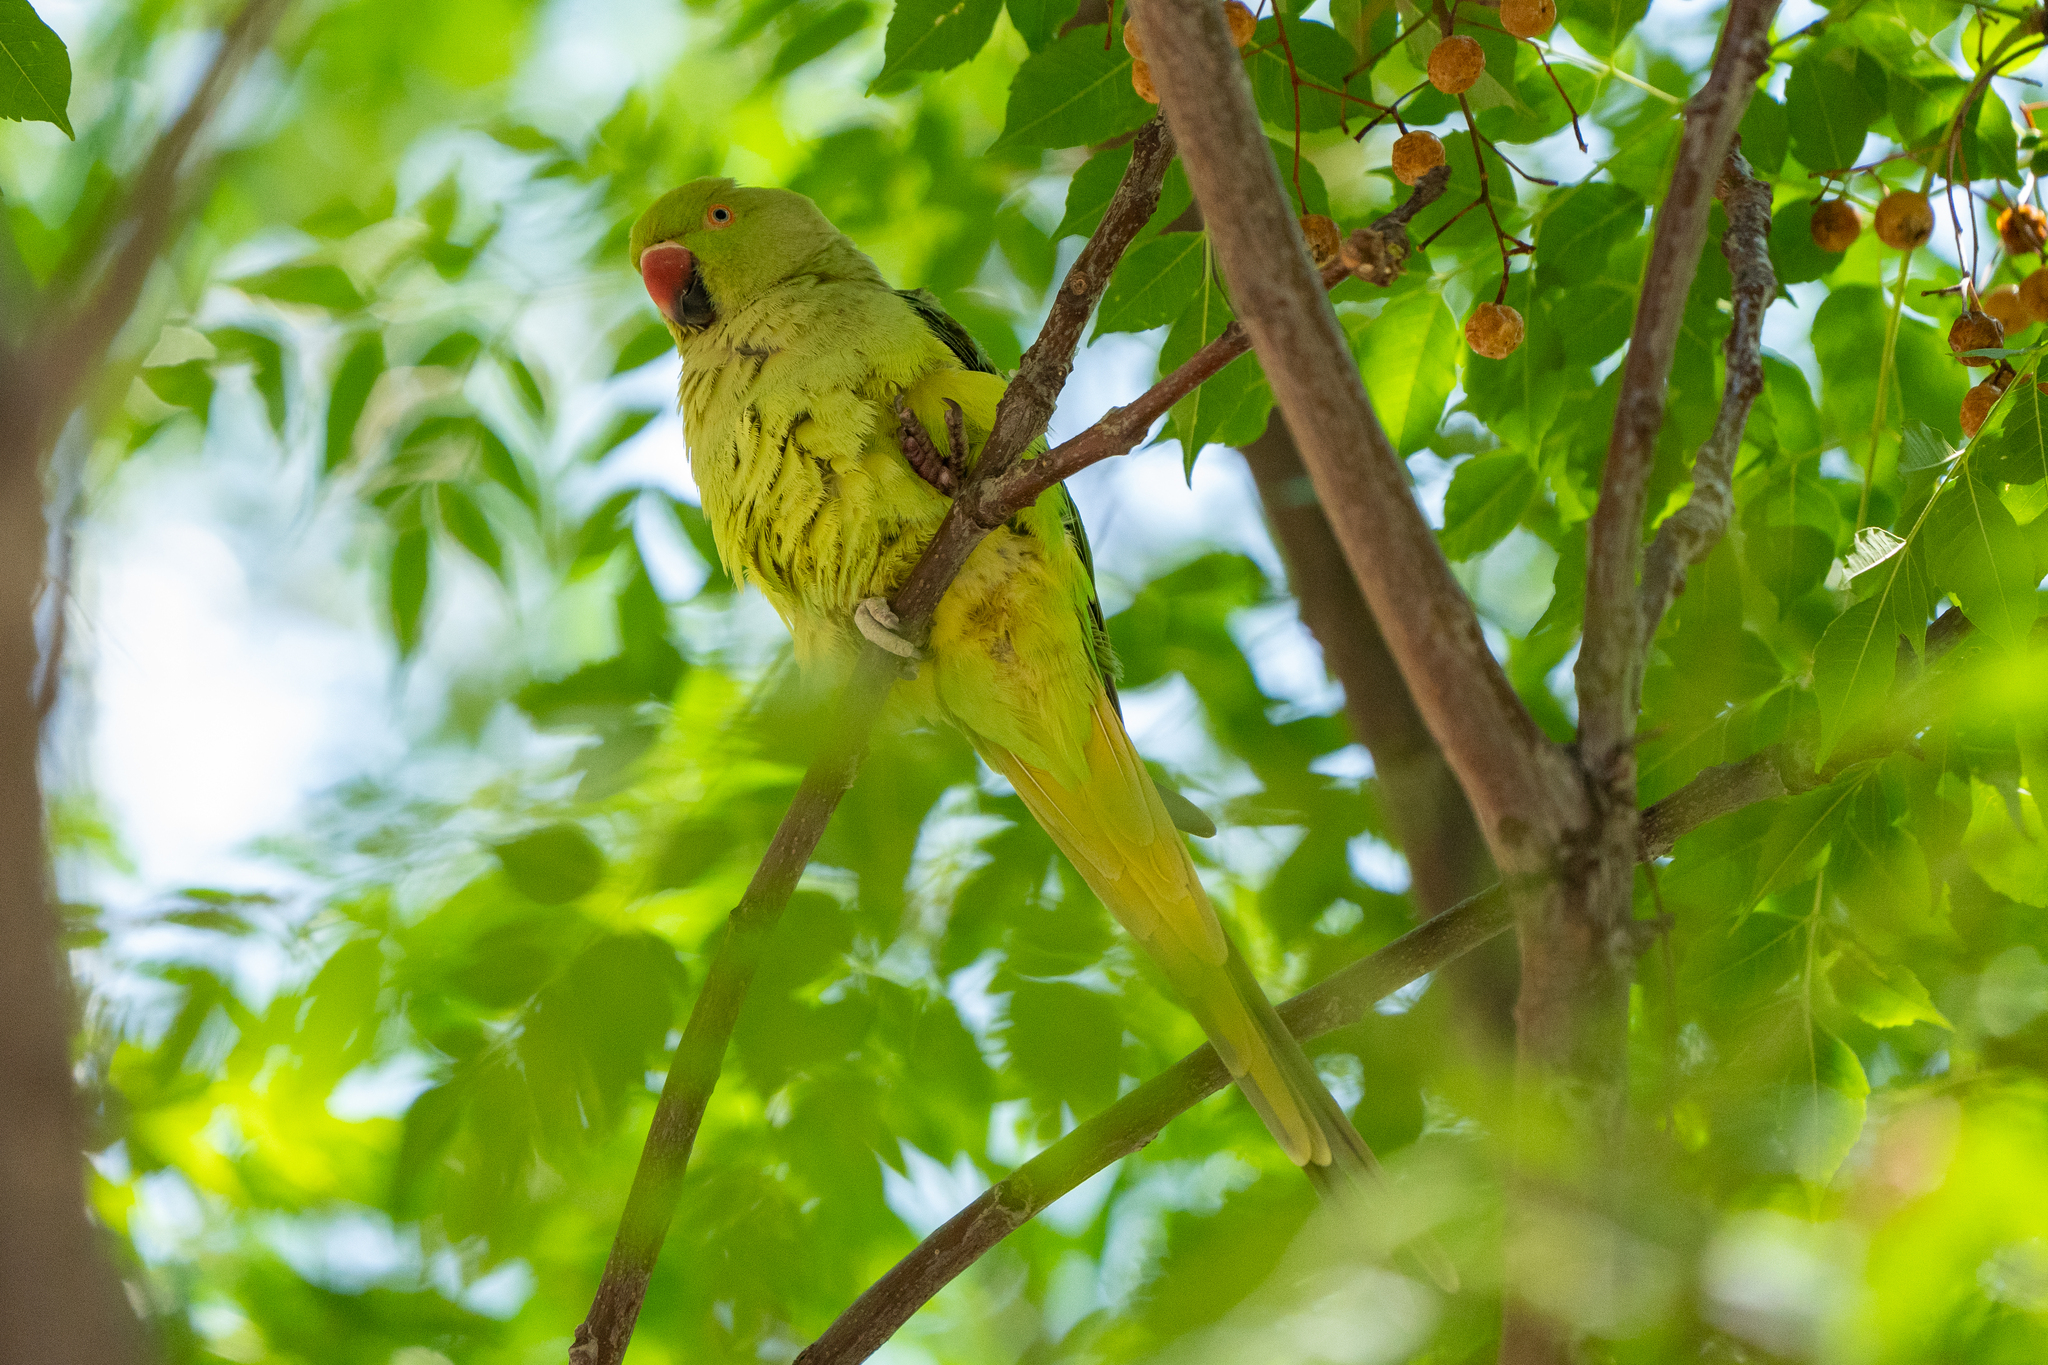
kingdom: Animalia
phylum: Chordata
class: Aves
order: Psittaciformes
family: Psittacidae
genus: Psittacula
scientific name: Psittacula krameri
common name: Rose-ringed parakeet
